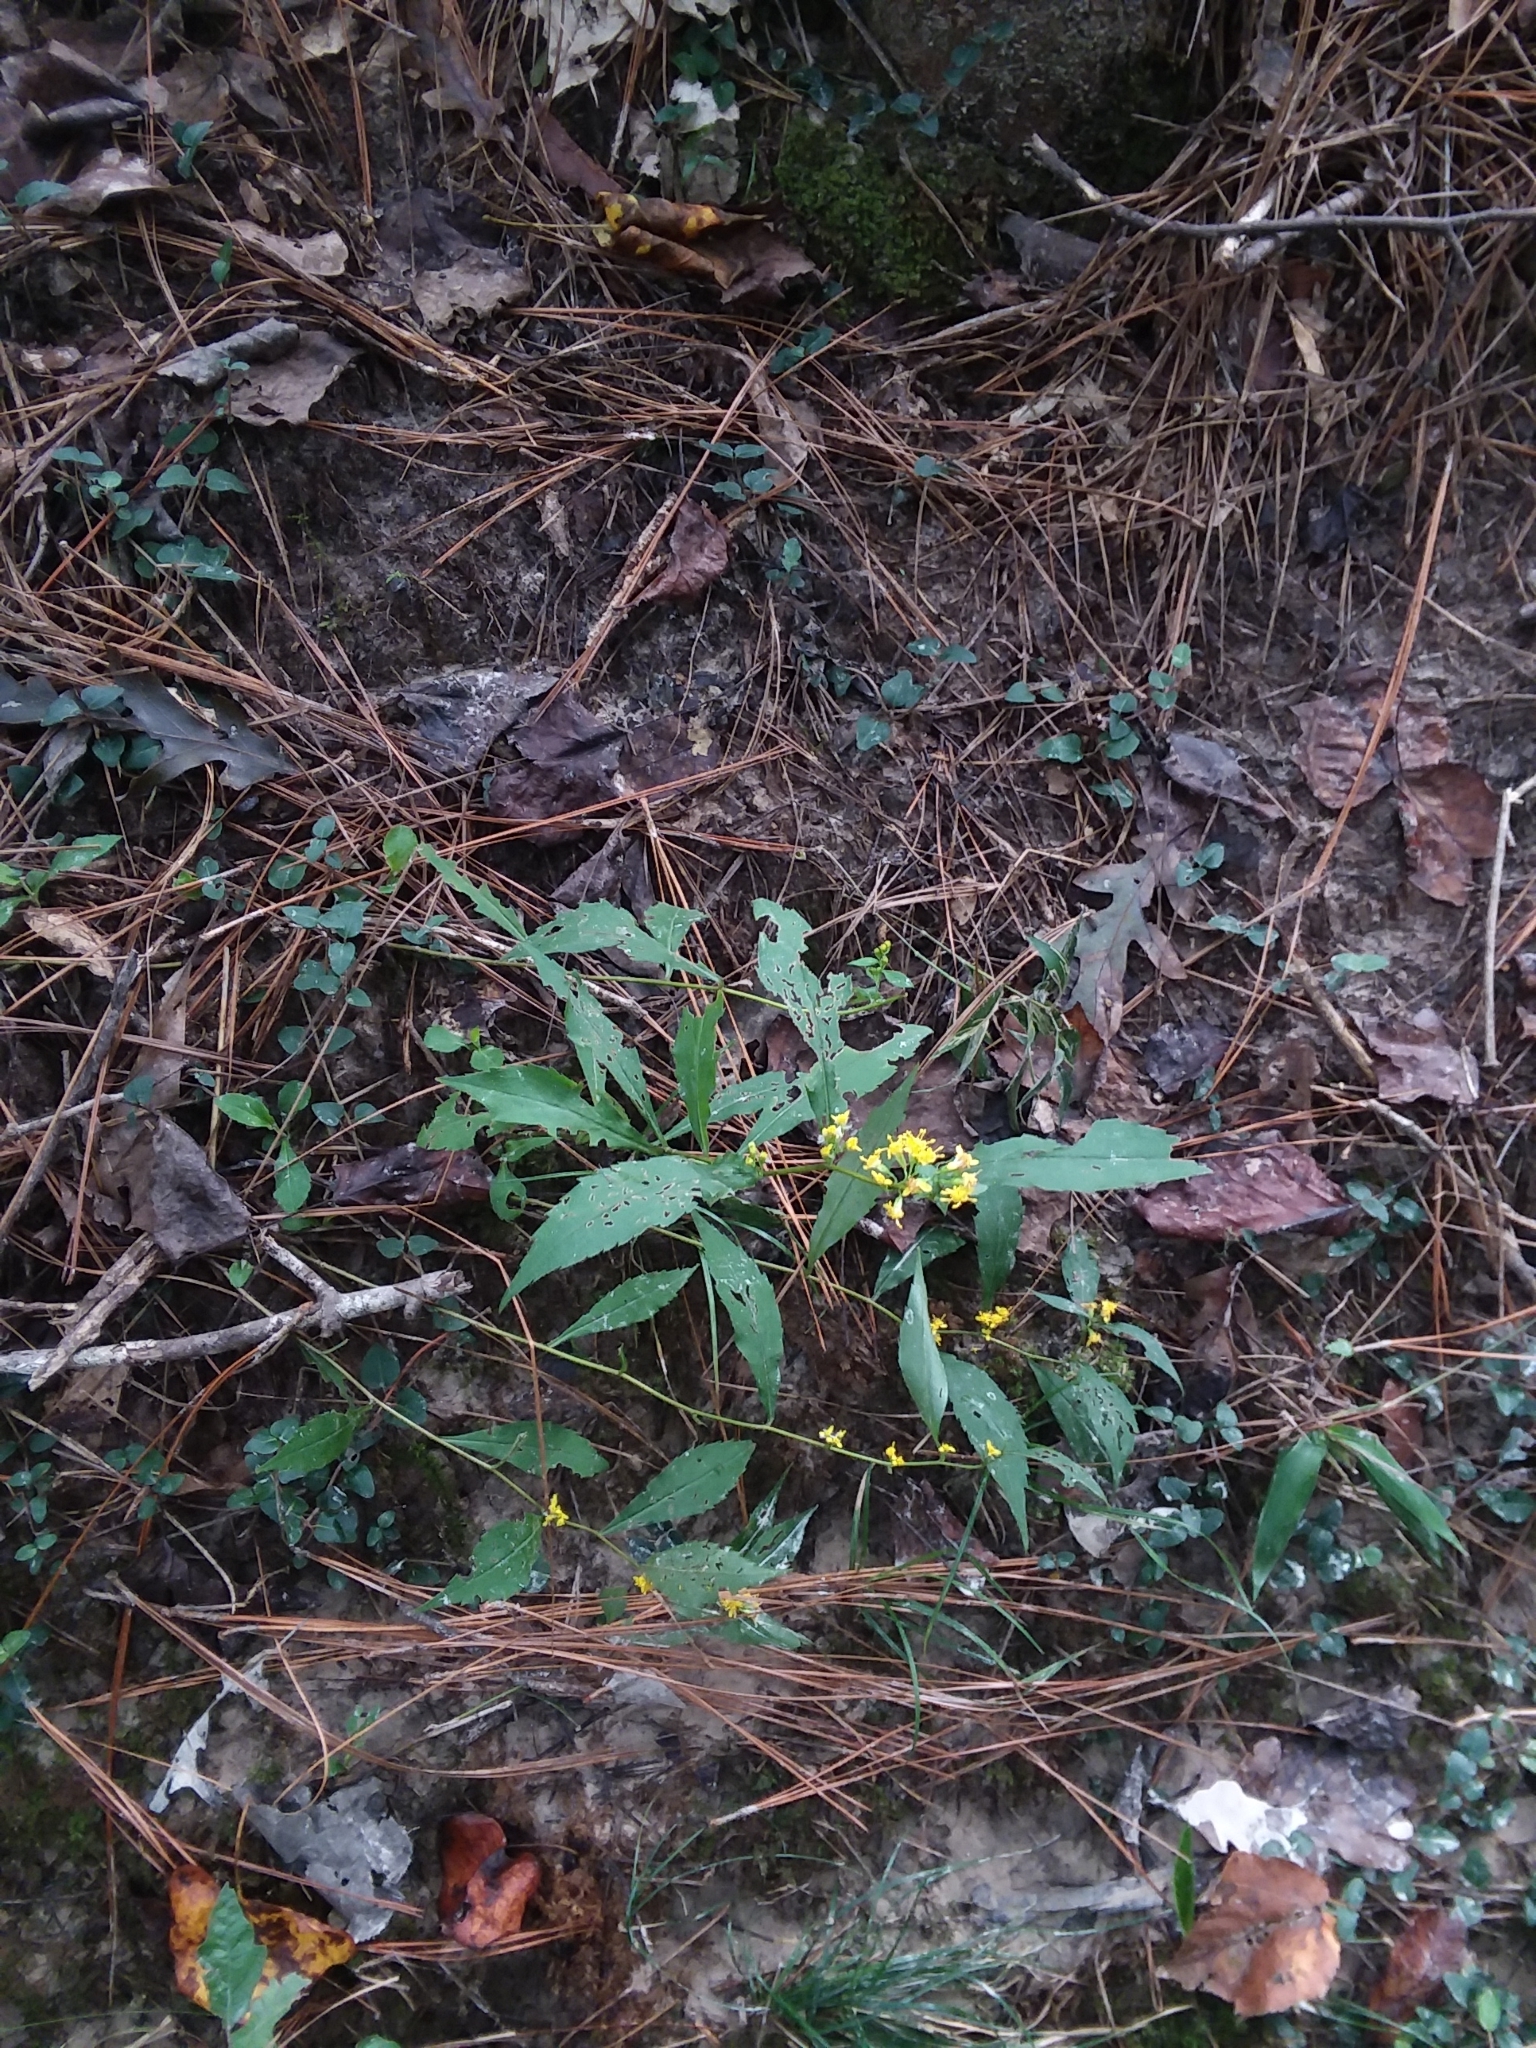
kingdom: Plantae
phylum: Tracheophyta
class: Magnoliopsida
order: Asterales
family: Asteraceae
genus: Solidago
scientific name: Solidago zedia
